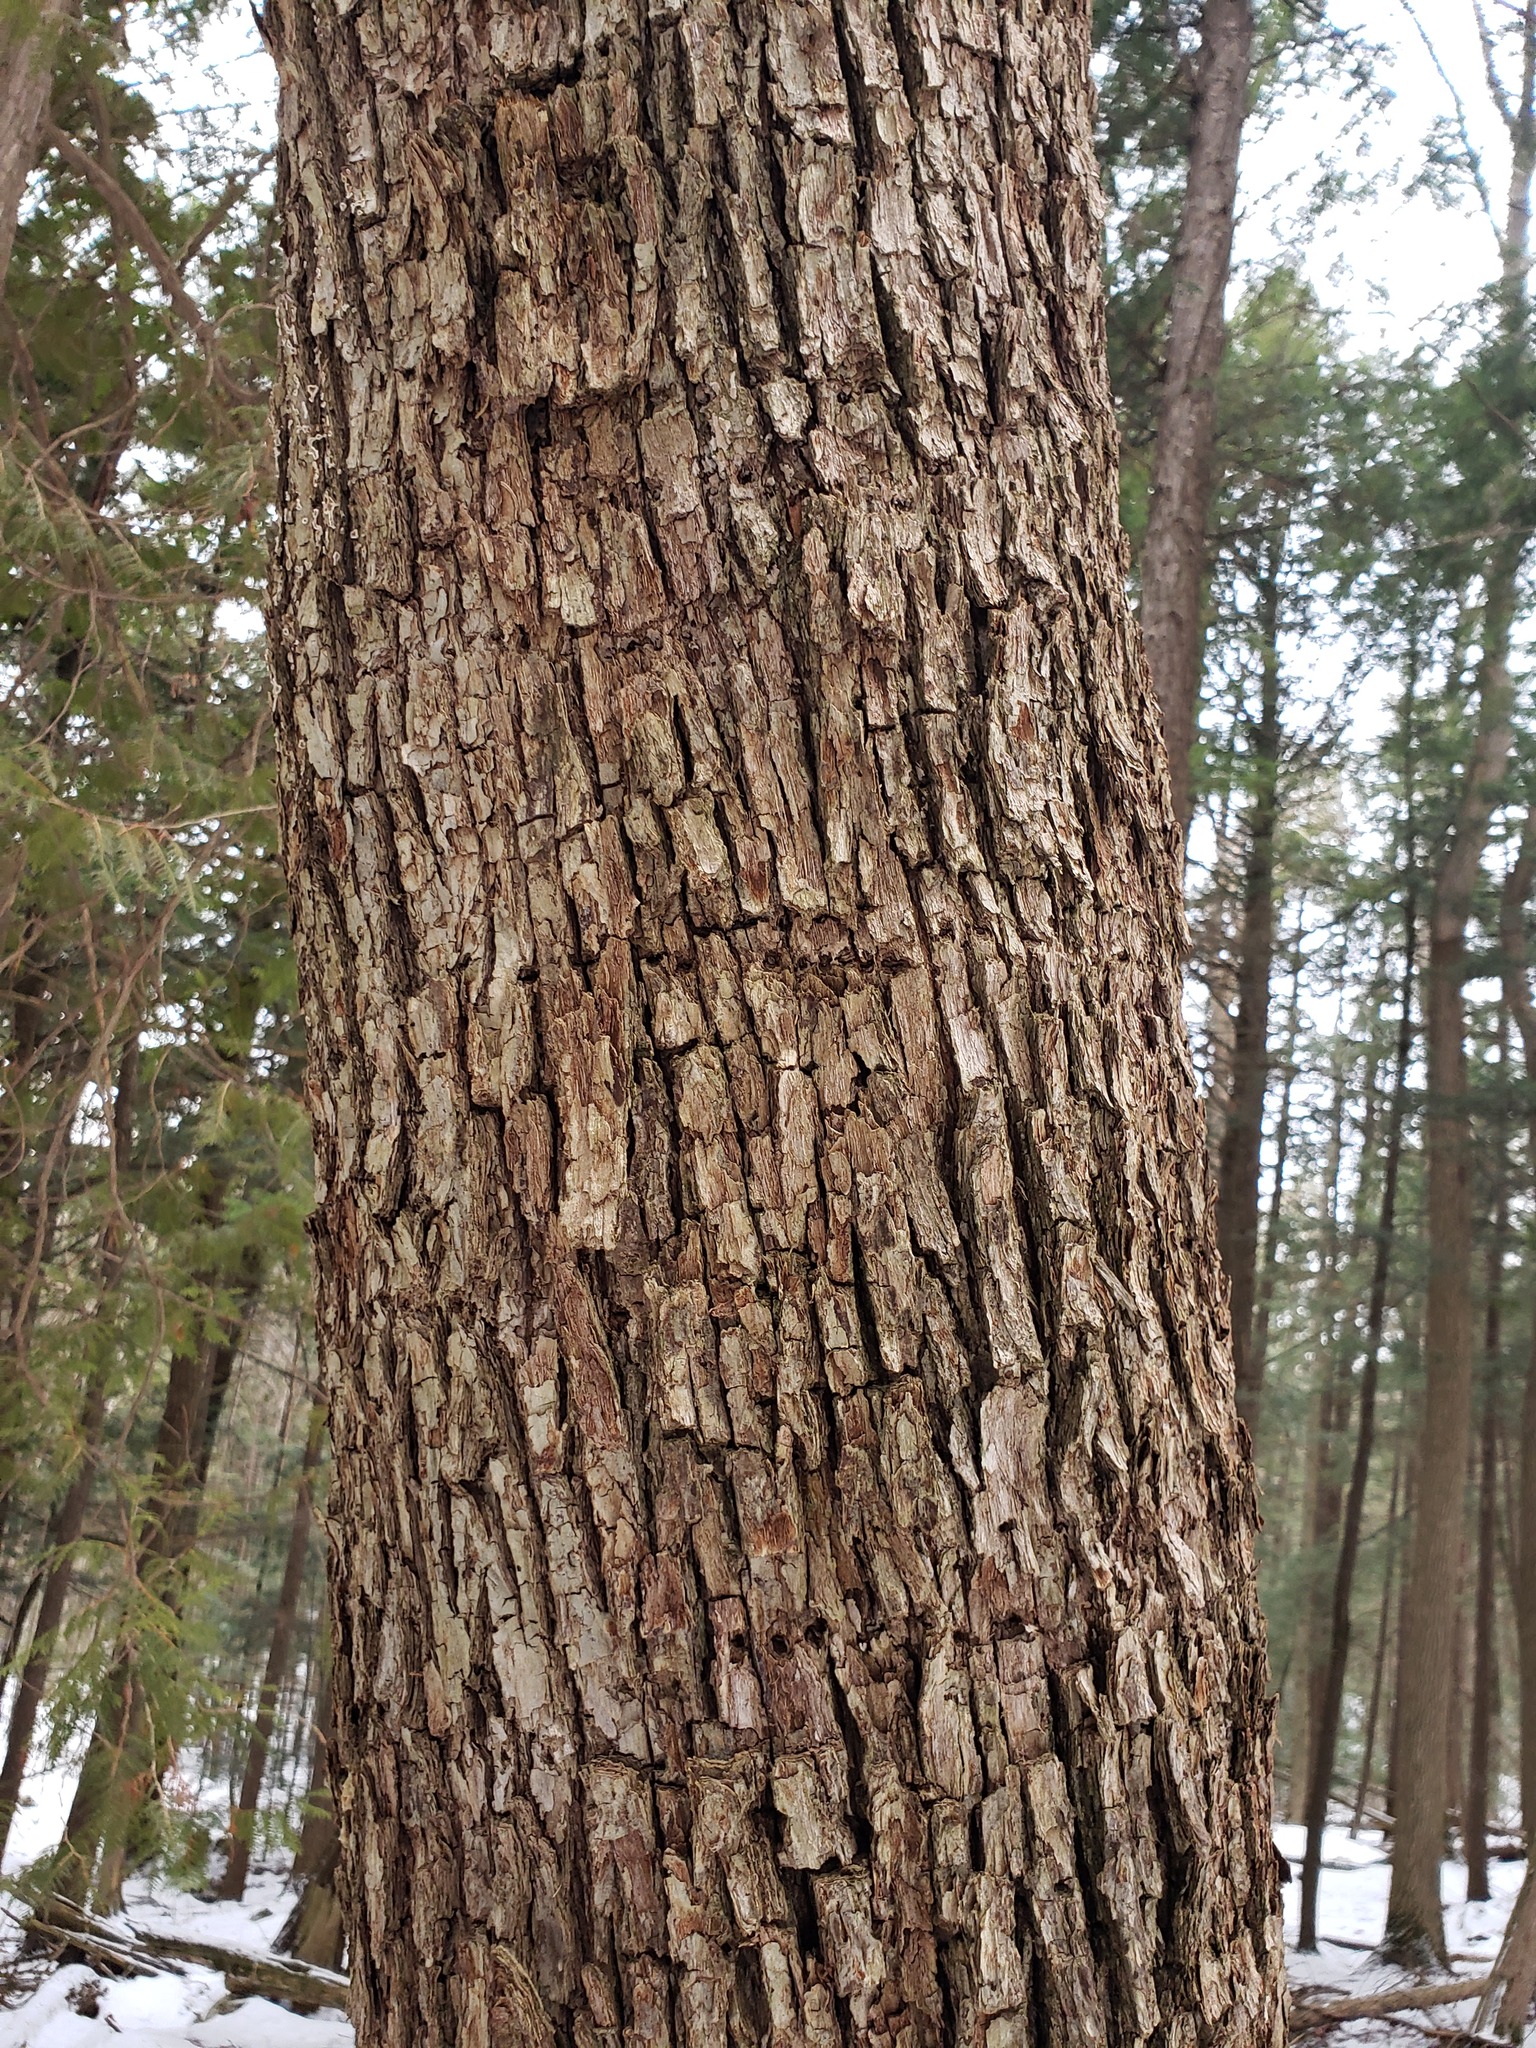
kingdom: Animalia
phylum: Chordata
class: Aves
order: Piciformes
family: Picidae
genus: Sphyrapicus
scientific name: Sphyrapicus varius
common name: Yellow-bellied sapsucker
